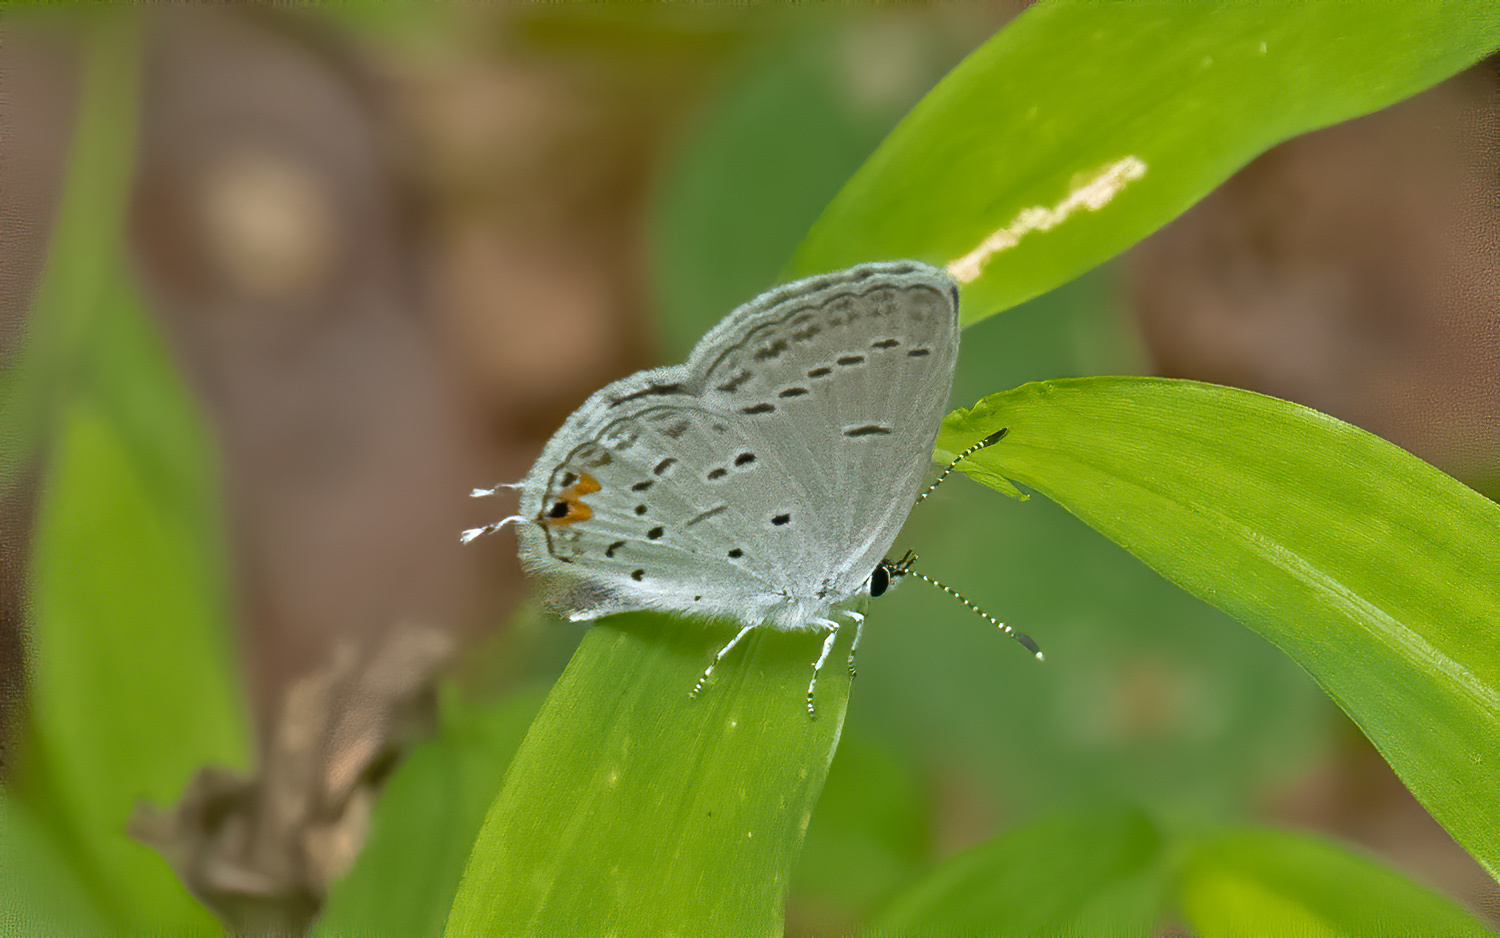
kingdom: Animalia
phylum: Arthropoda
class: Insecta
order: Lepidoptera
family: Lycaenidae
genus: Elkalyce
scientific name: Elkalyce comyntas
